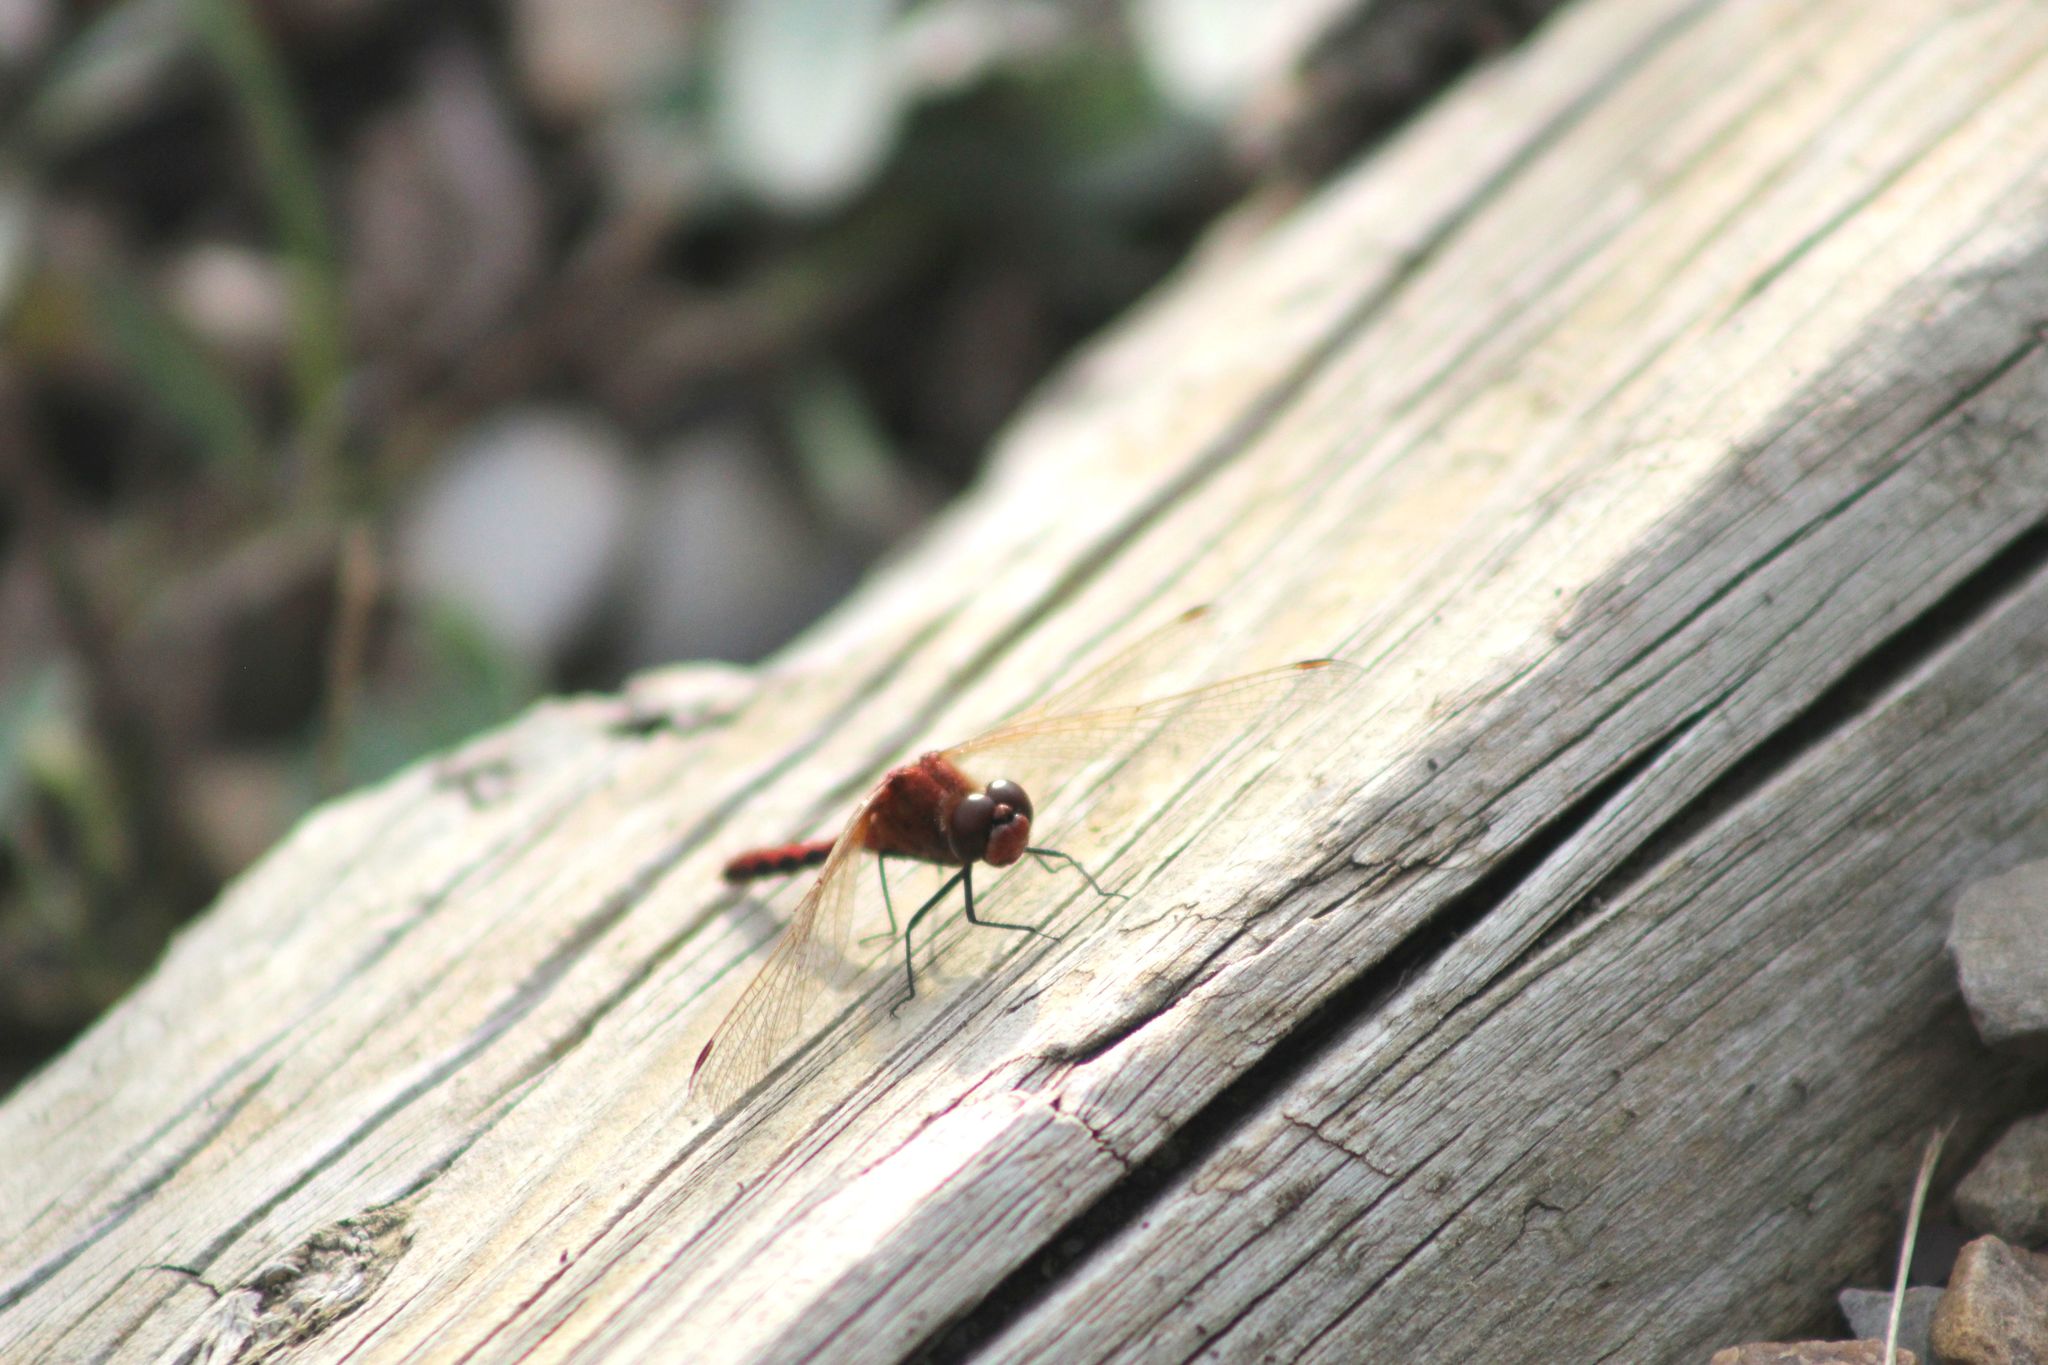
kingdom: Animalia
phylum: Arthropoda
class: Insecta
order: Odonata
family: Libellulidae
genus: Sympetrum
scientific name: Sympetrum internum
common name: Cherry-faced meadowhawk
